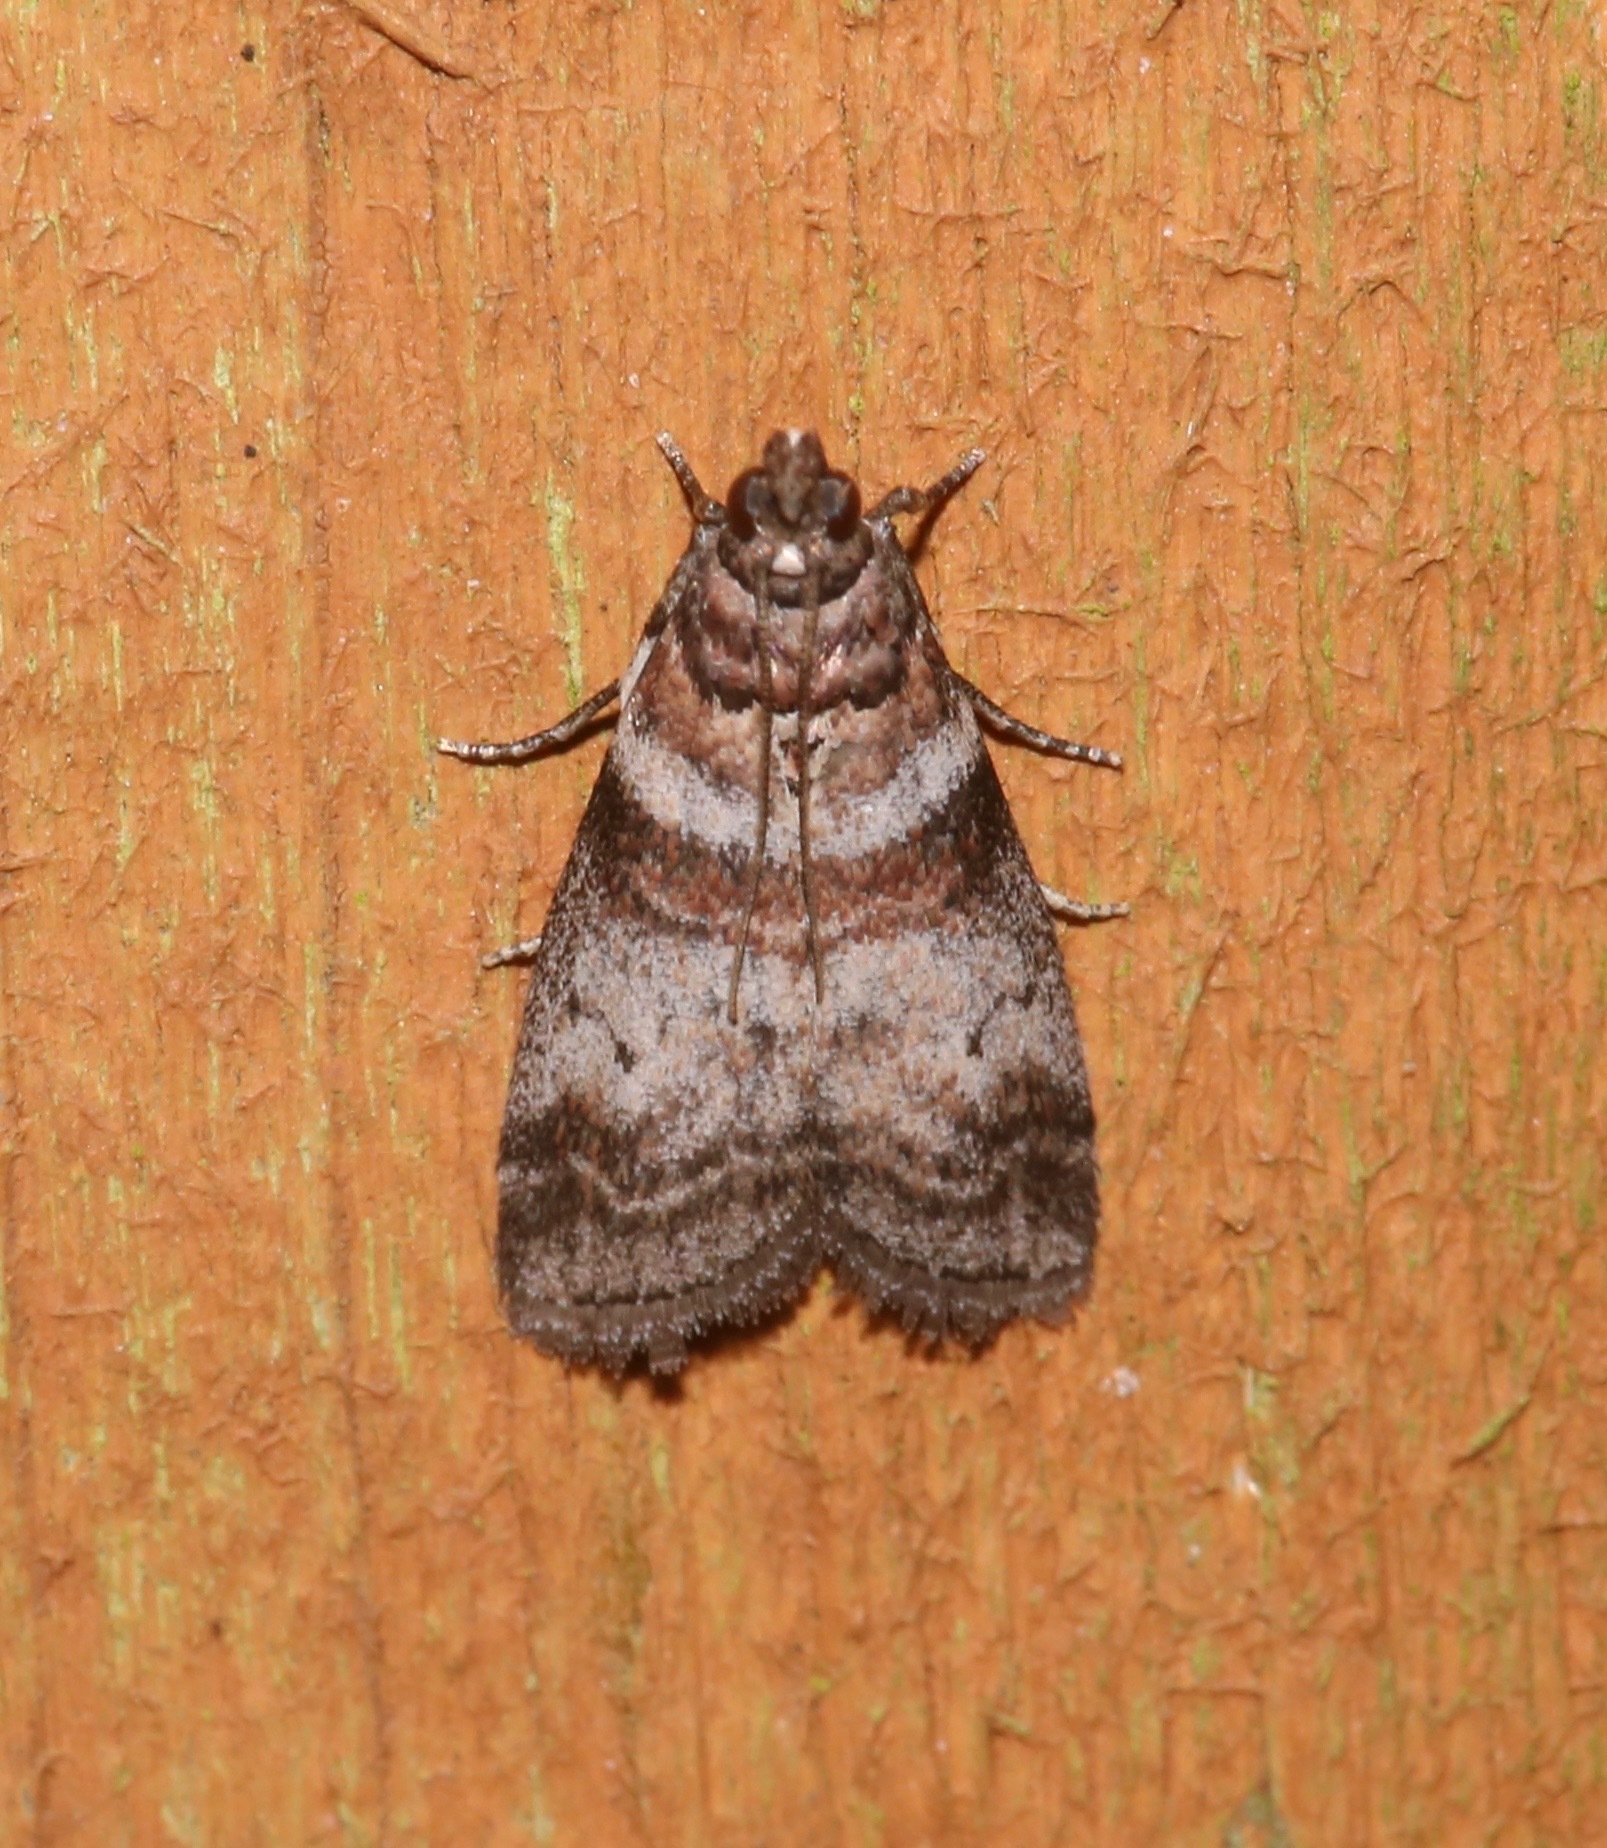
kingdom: Animalia
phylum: Arthropoda
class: Insecta
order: Lepidoptera
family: Pyralidae
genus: Sciota
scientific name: Sciota uvinella
